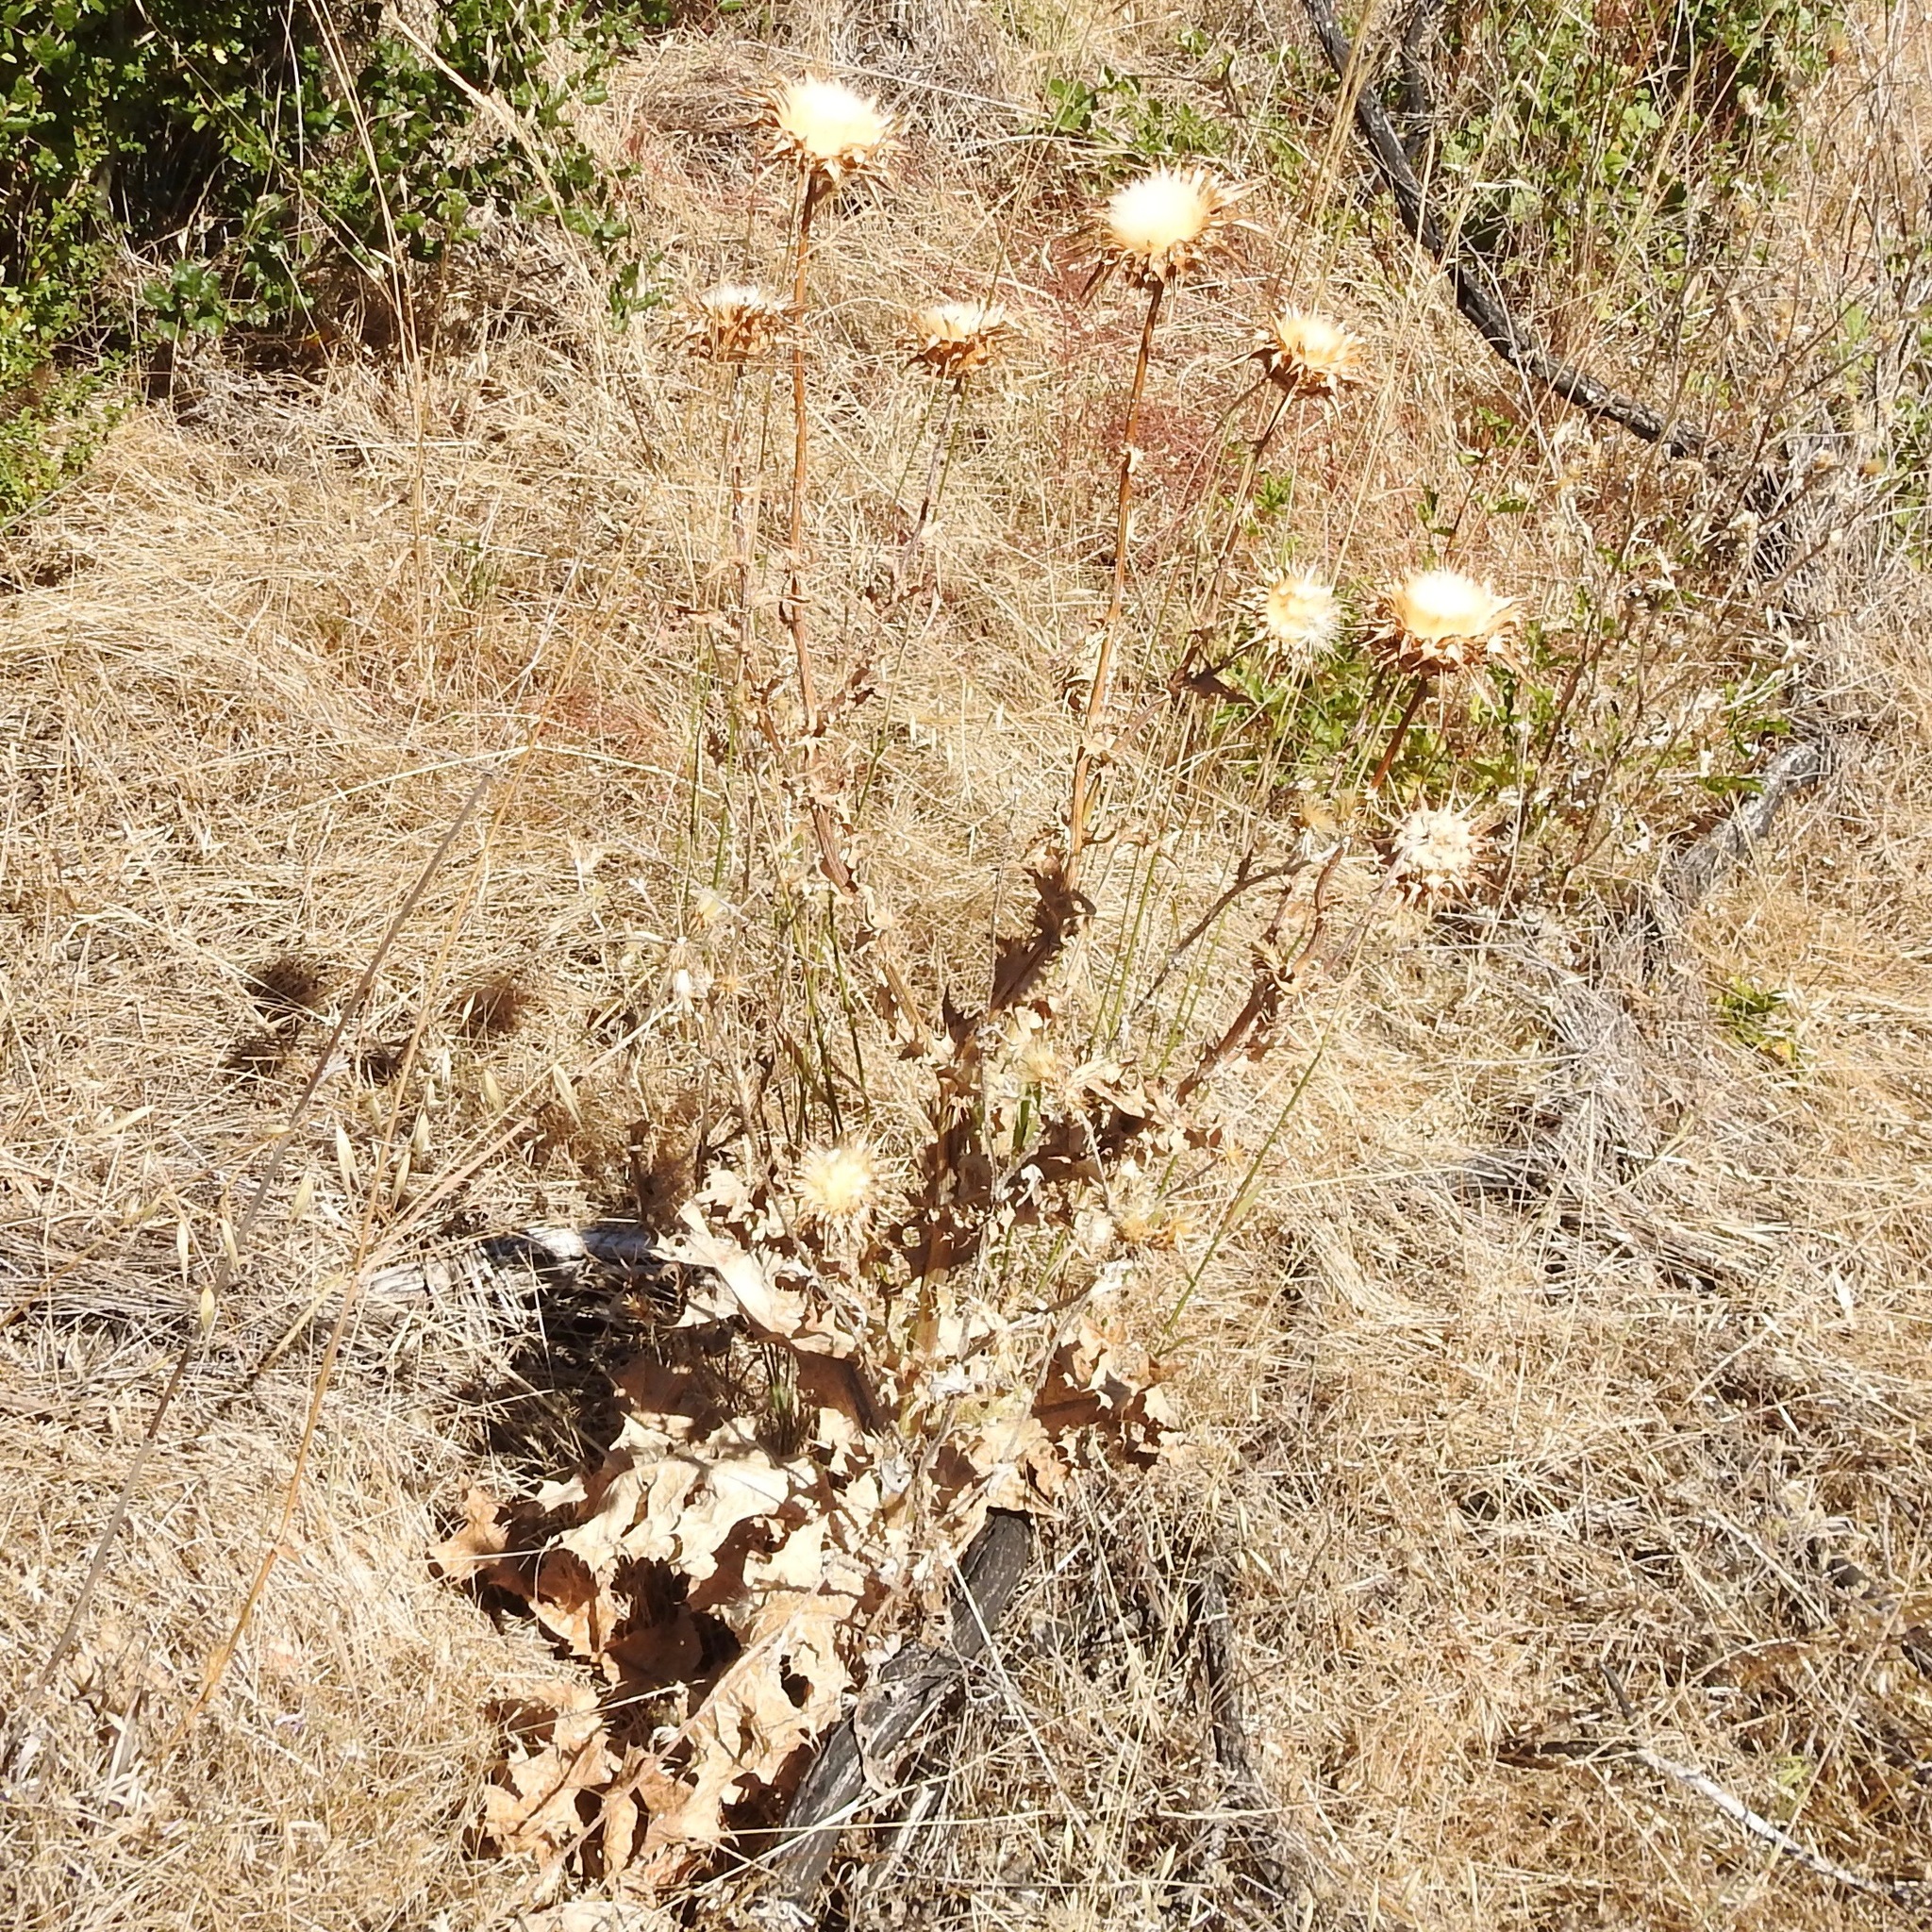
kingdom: Plantae
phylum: Tracheophyta
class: Magnoliopsida
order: Asterales
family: Asteraceae
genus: Silybum
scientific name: Silybum marianum
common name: Milk thistle
